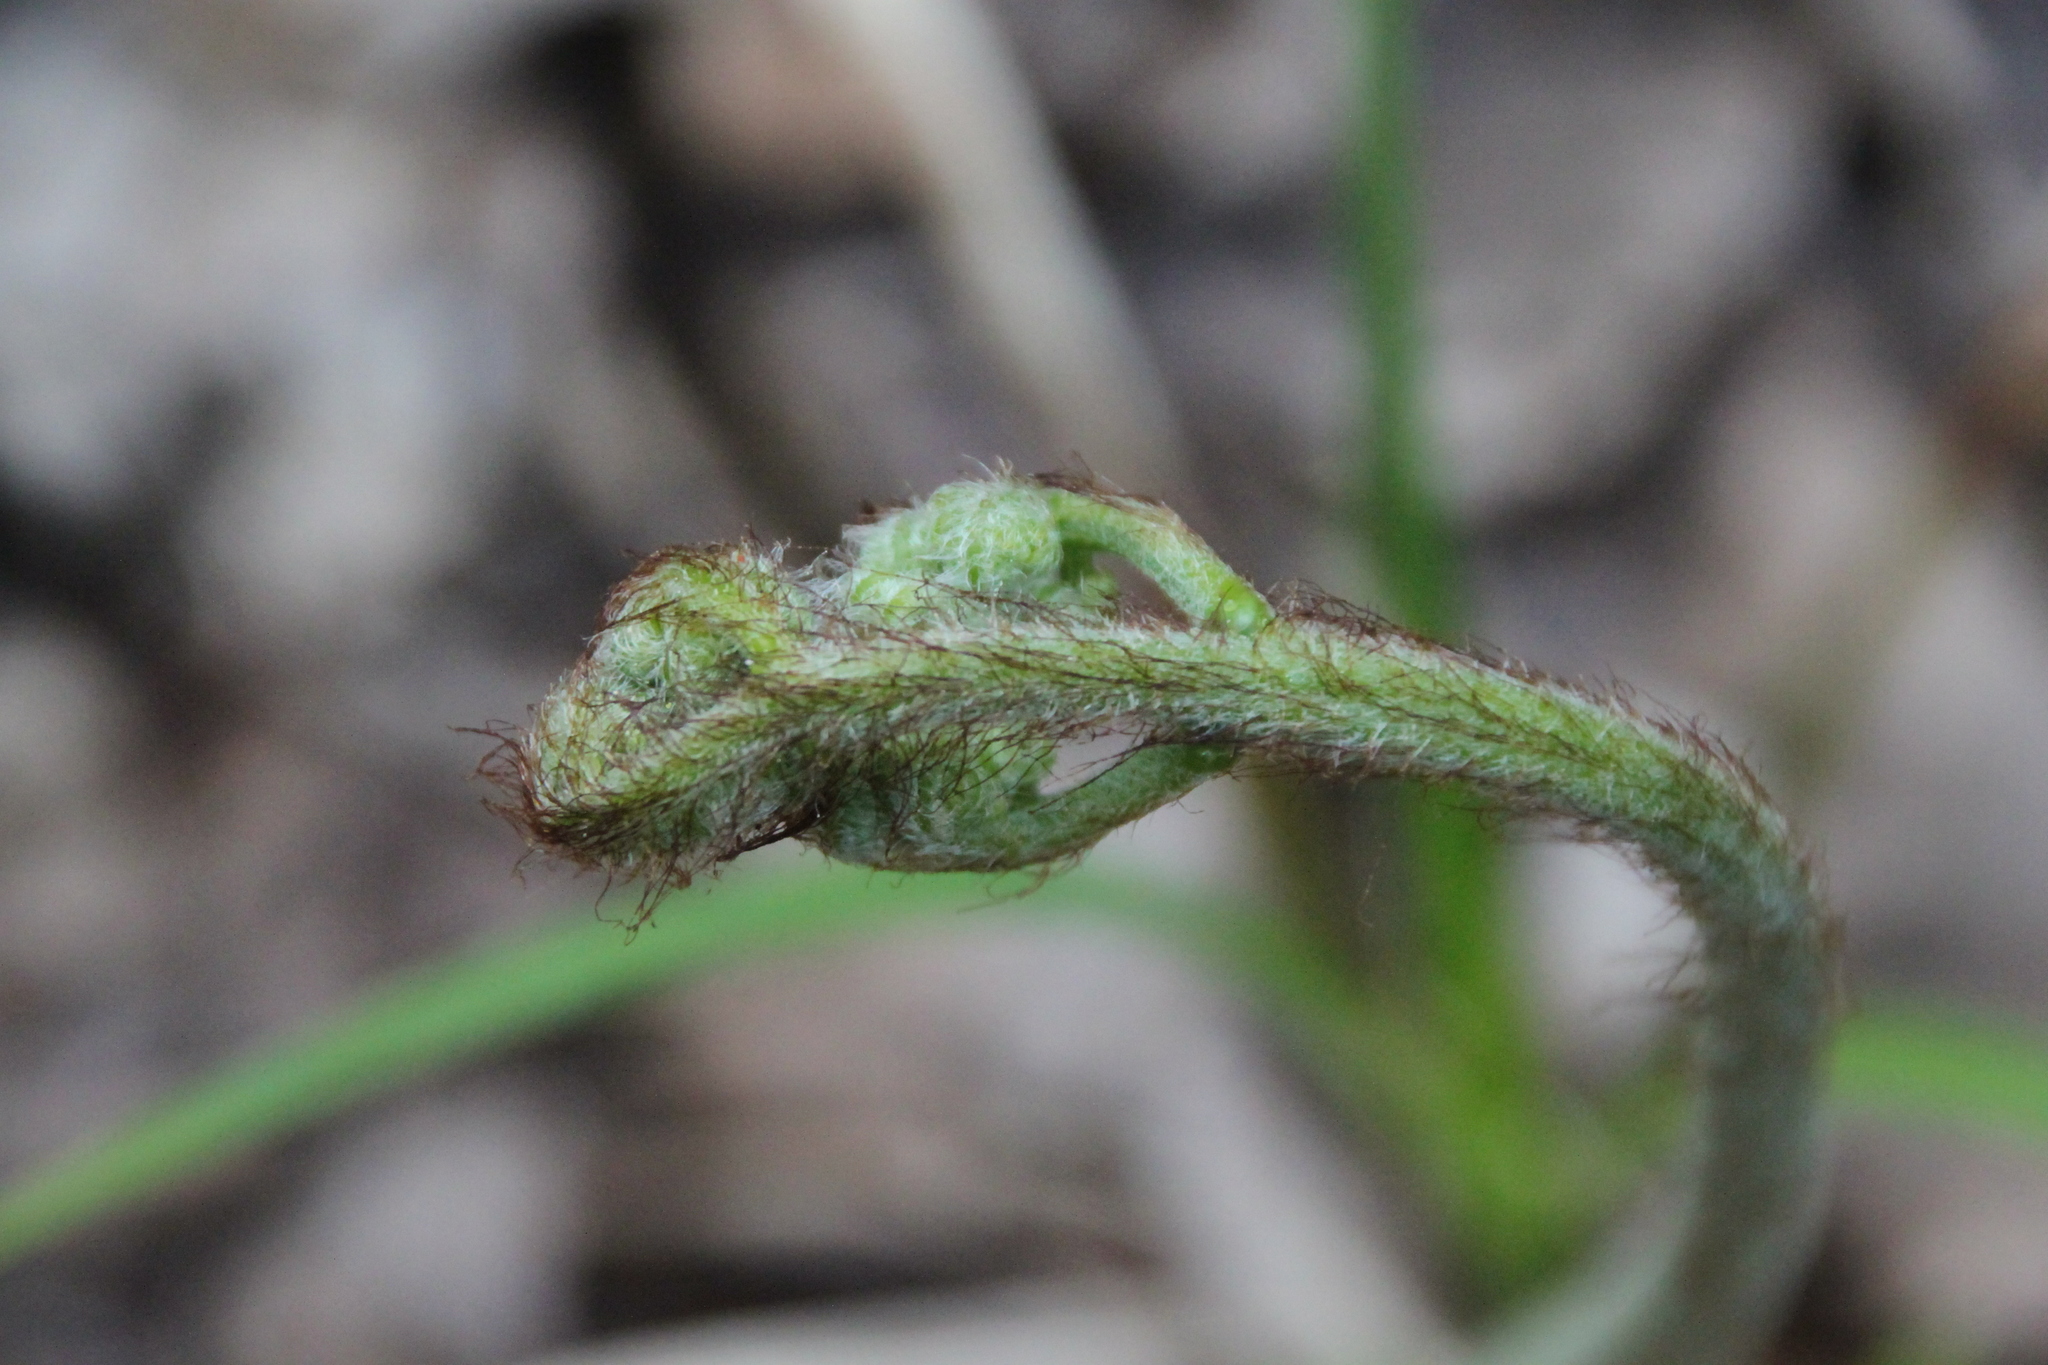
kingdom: Plantae
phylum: Tracheophyta
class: Polypodiopsida
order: Polypodiales
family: Dennstaedtiaceae
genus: Pteridium
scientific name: Pteridium aquilinum
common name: Bracken
